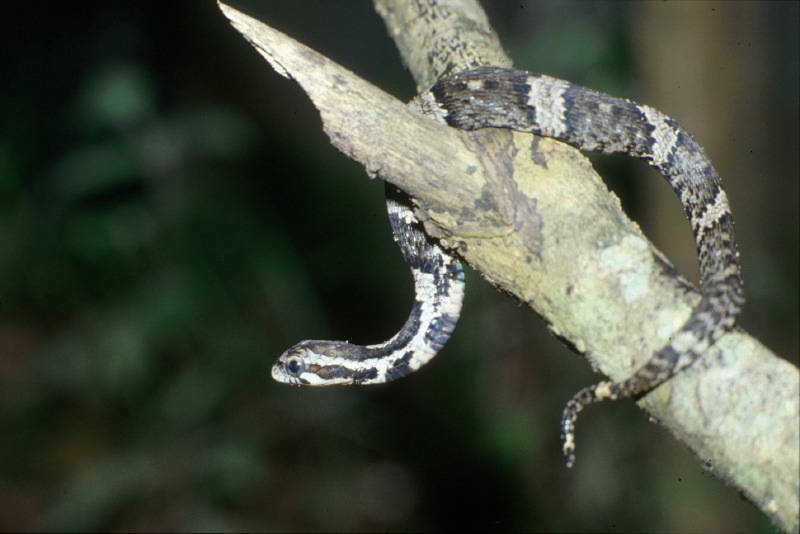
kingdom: Animalia
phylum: Chordata
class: Squamata
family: Colubridae
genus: Xenodon
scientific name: Xenodon severus
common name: Amazon false fer-de-lance
